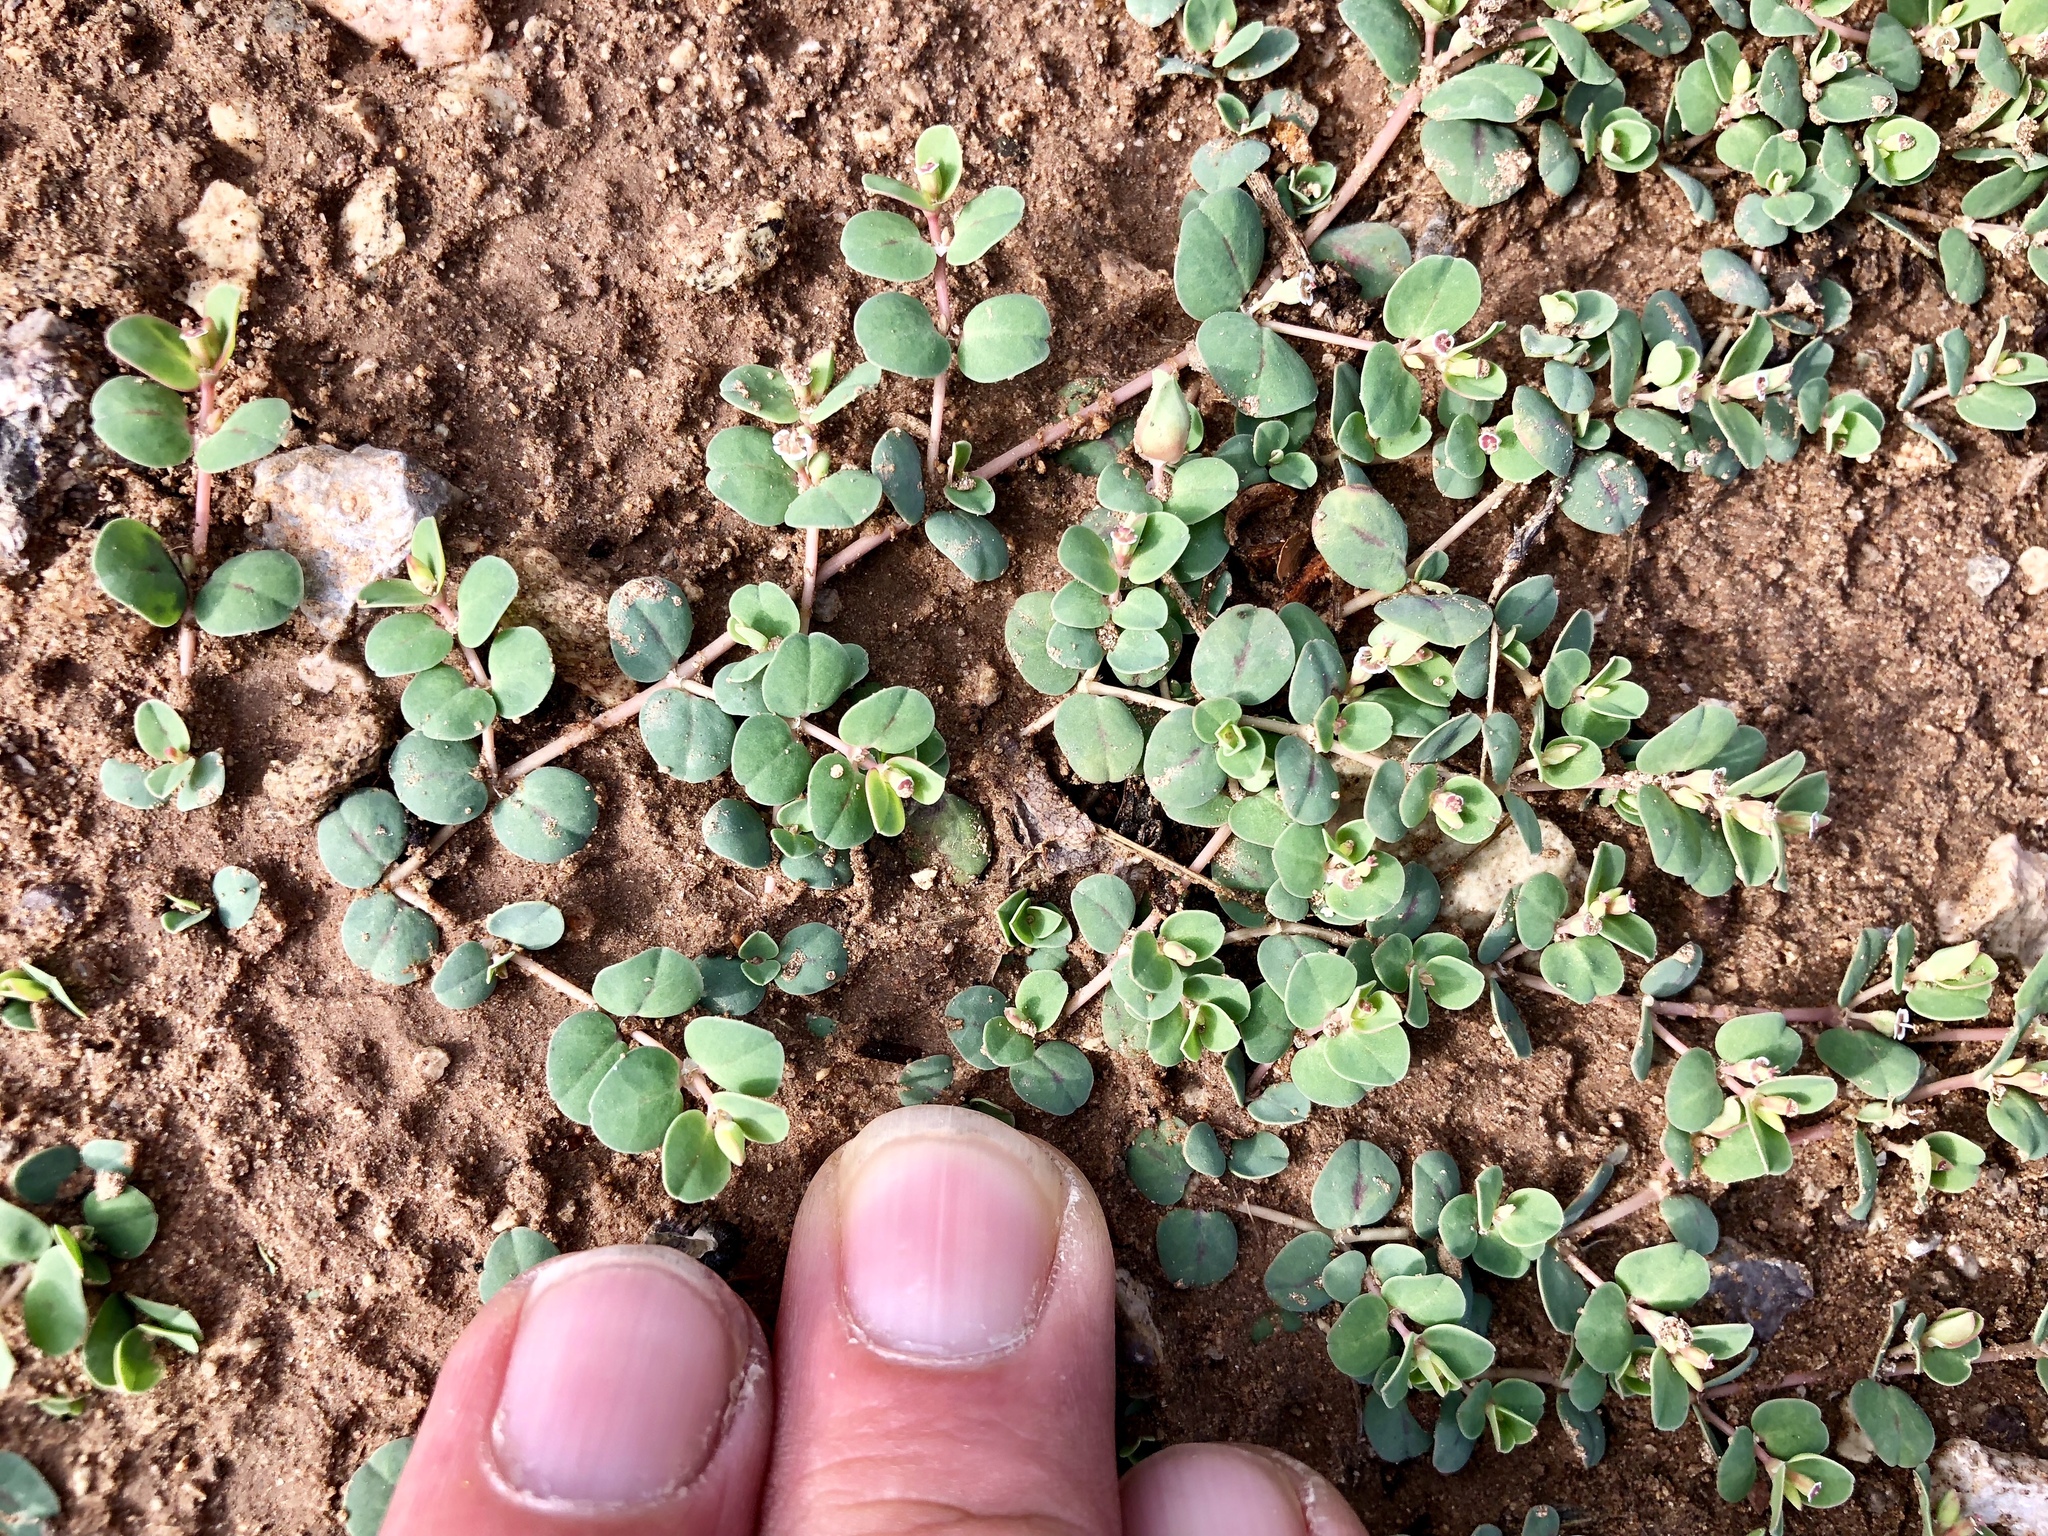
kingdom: Plantae
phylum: Tracheophyta
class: Magnoliopsida
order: Malpighiales
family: Euphorbiaceae
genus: Euphorbia
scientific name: Euphorbia albomarginata
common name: Whitemargin sandmat
